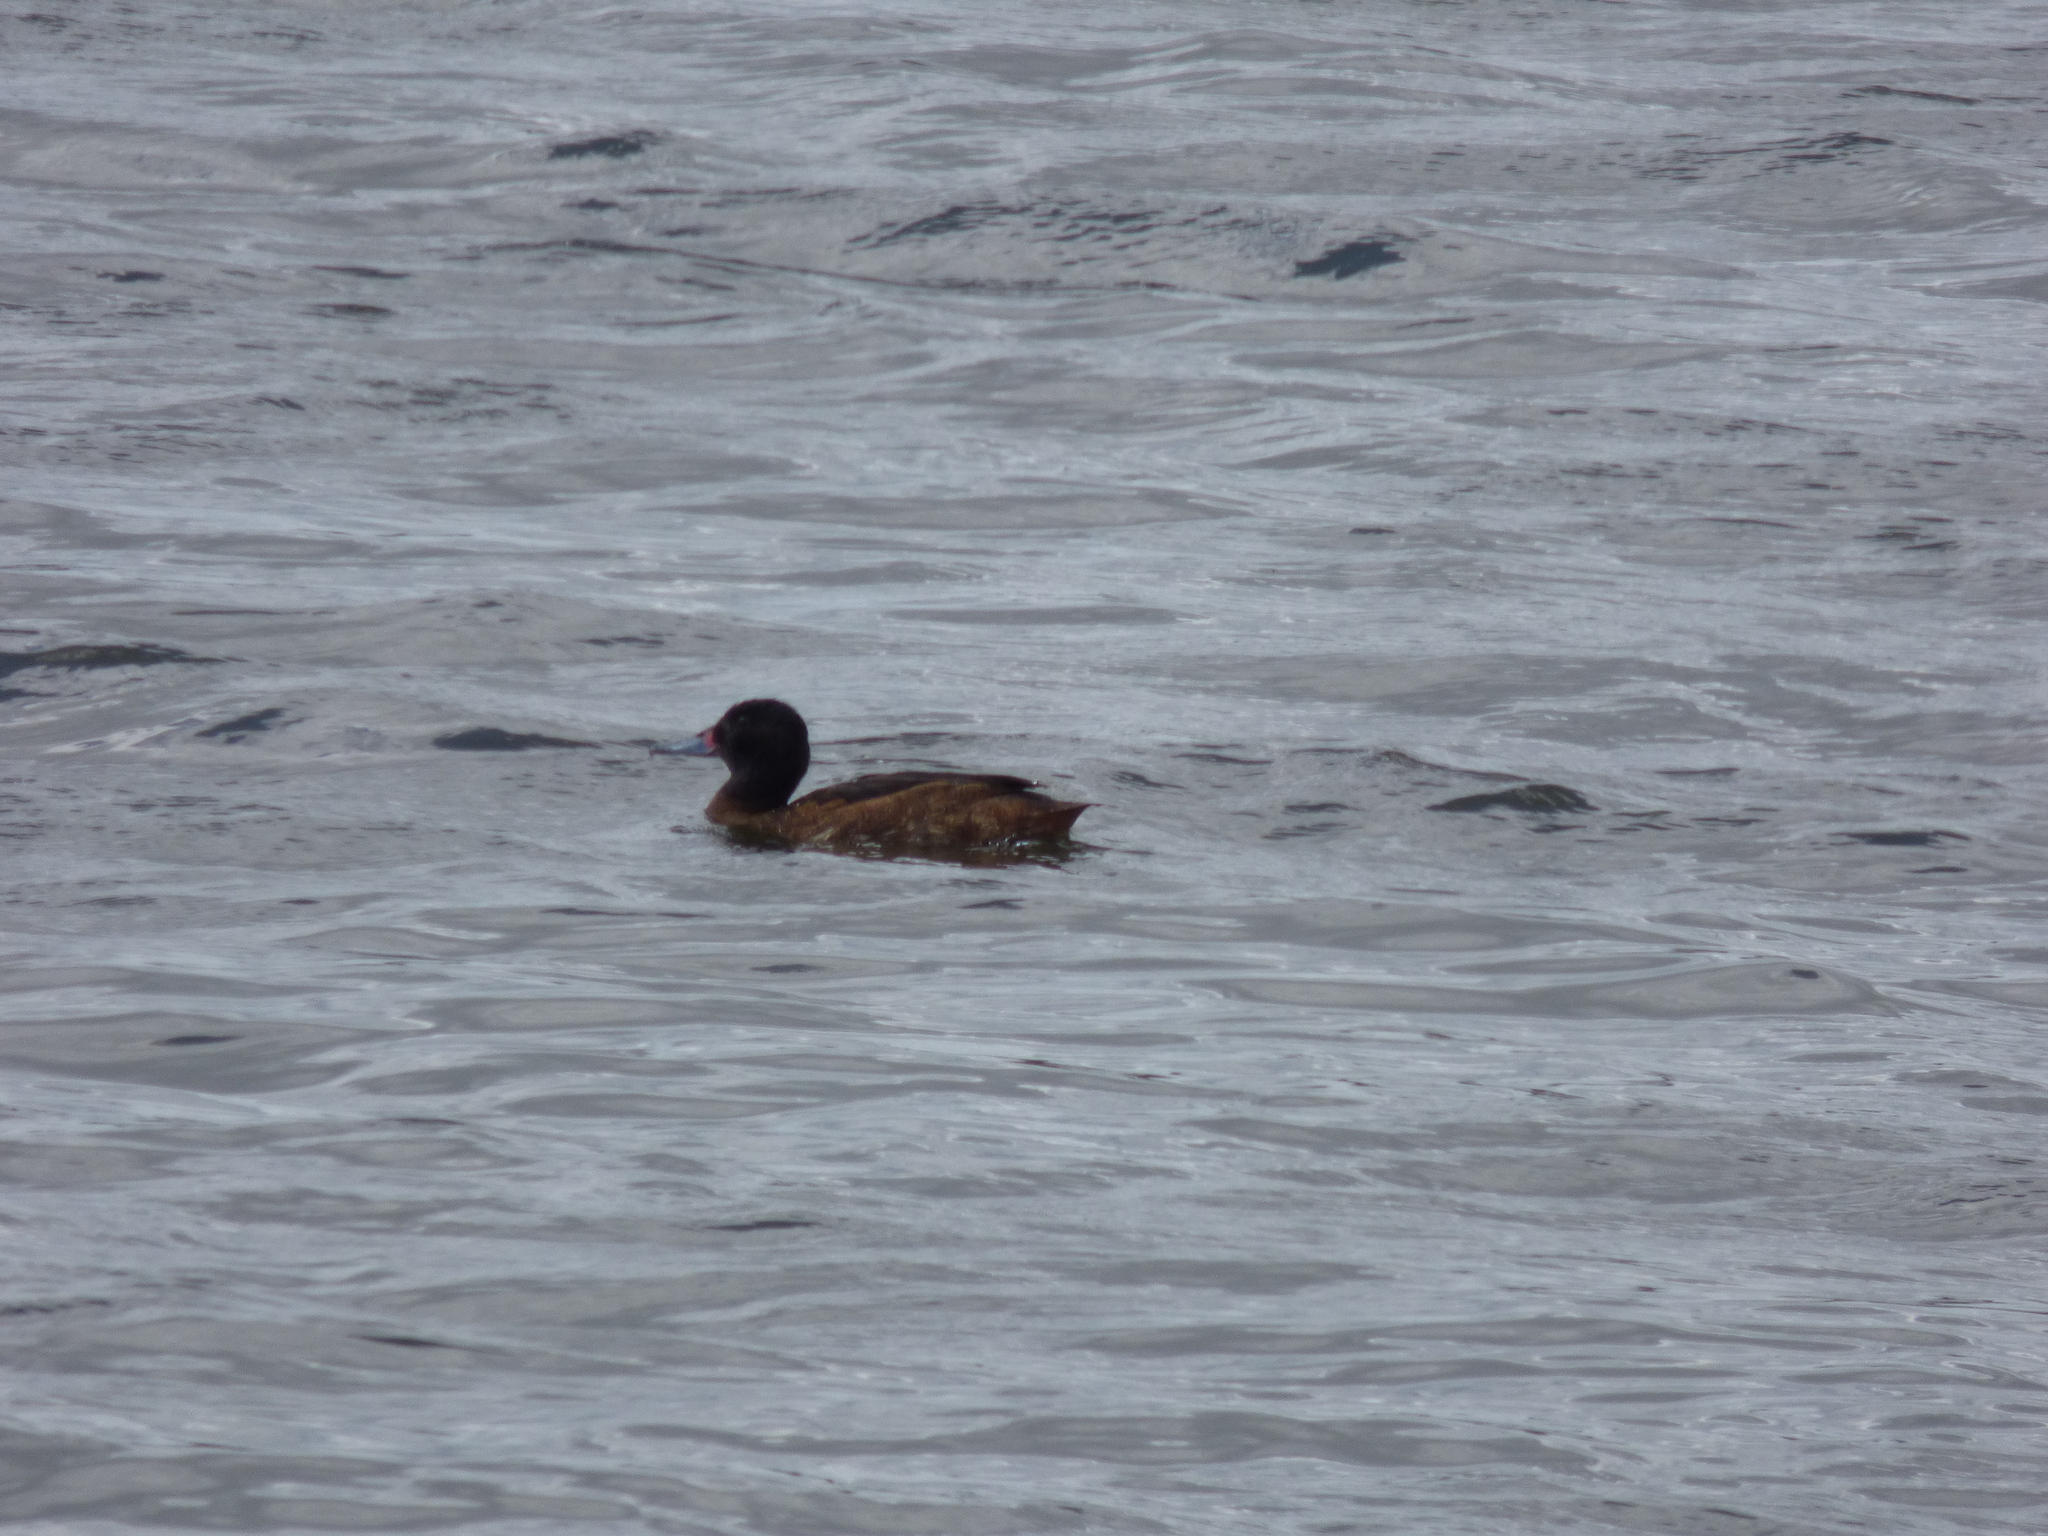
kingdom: Animalia
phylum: Chordata
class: Aves
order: Anseriformes
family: Anatidae
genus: Heteronetta
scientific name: Heteronetta atricapilla
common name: Black-headed duck
